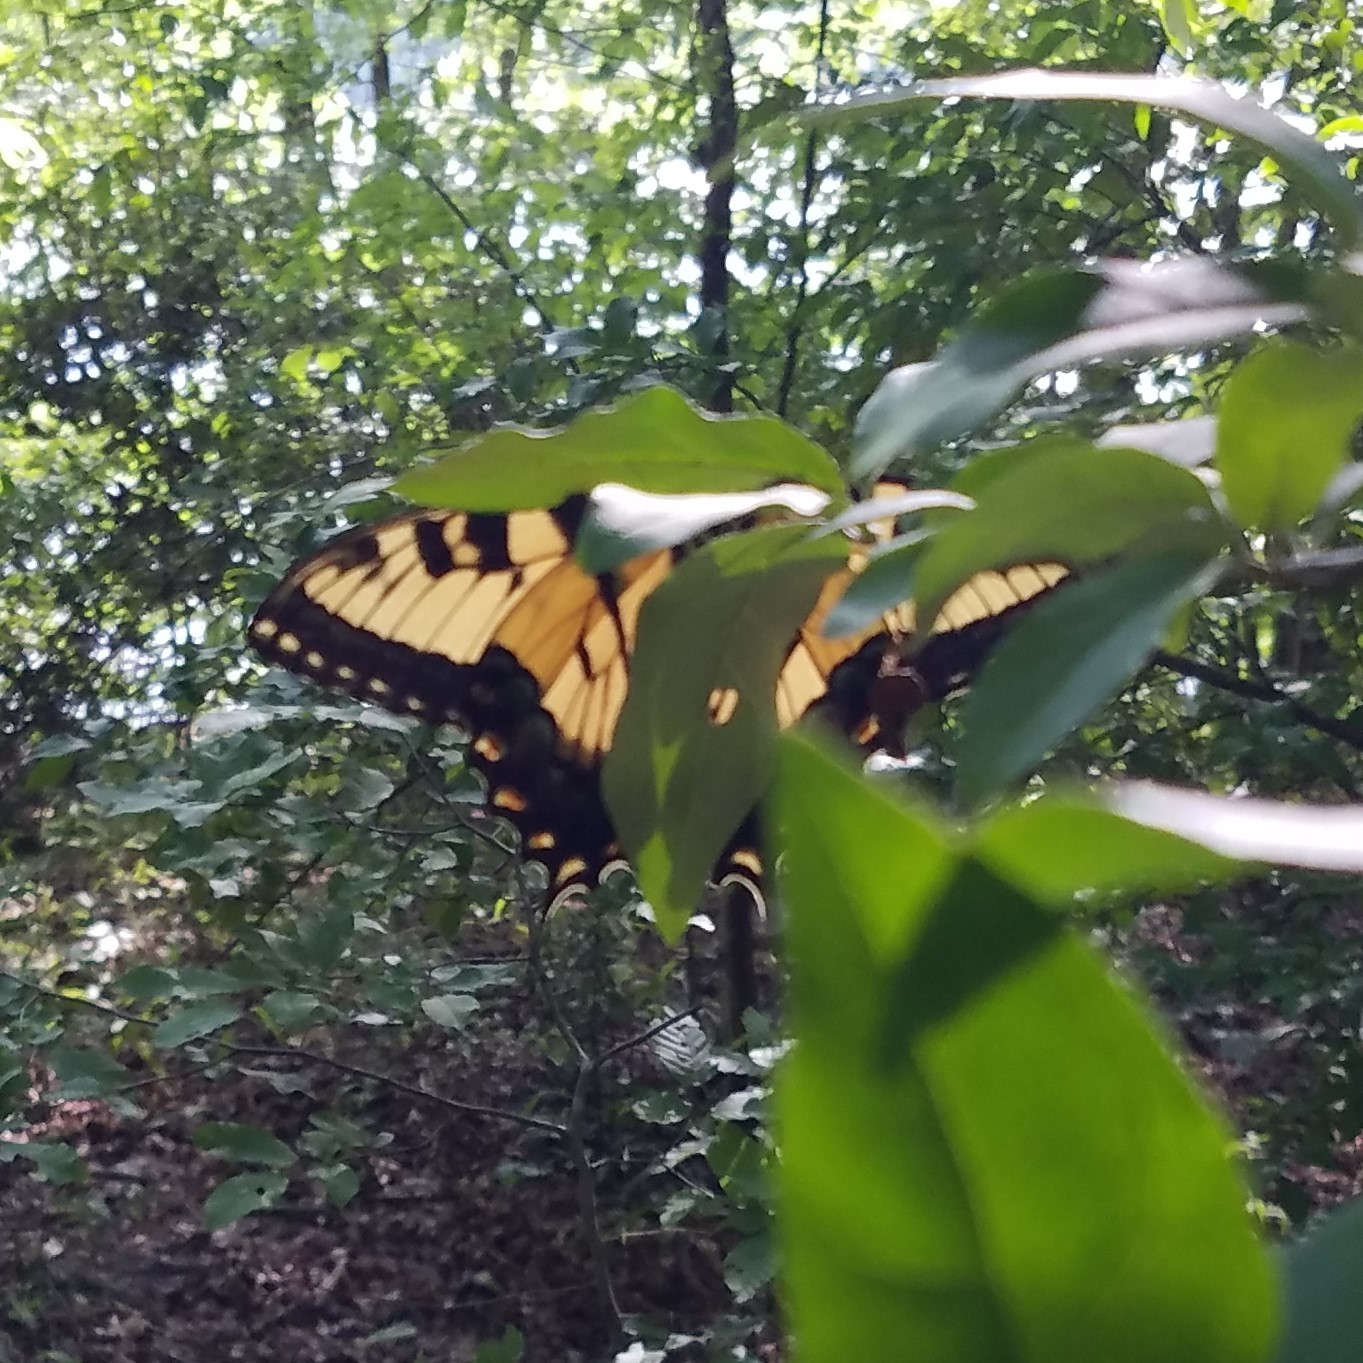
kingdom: Animalia
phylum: Arthropoda
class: Insecta
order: Lepidoptera
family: Papilionidae
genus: Papilio
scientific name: Papilio glaucus
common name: Tiger swallowtail
